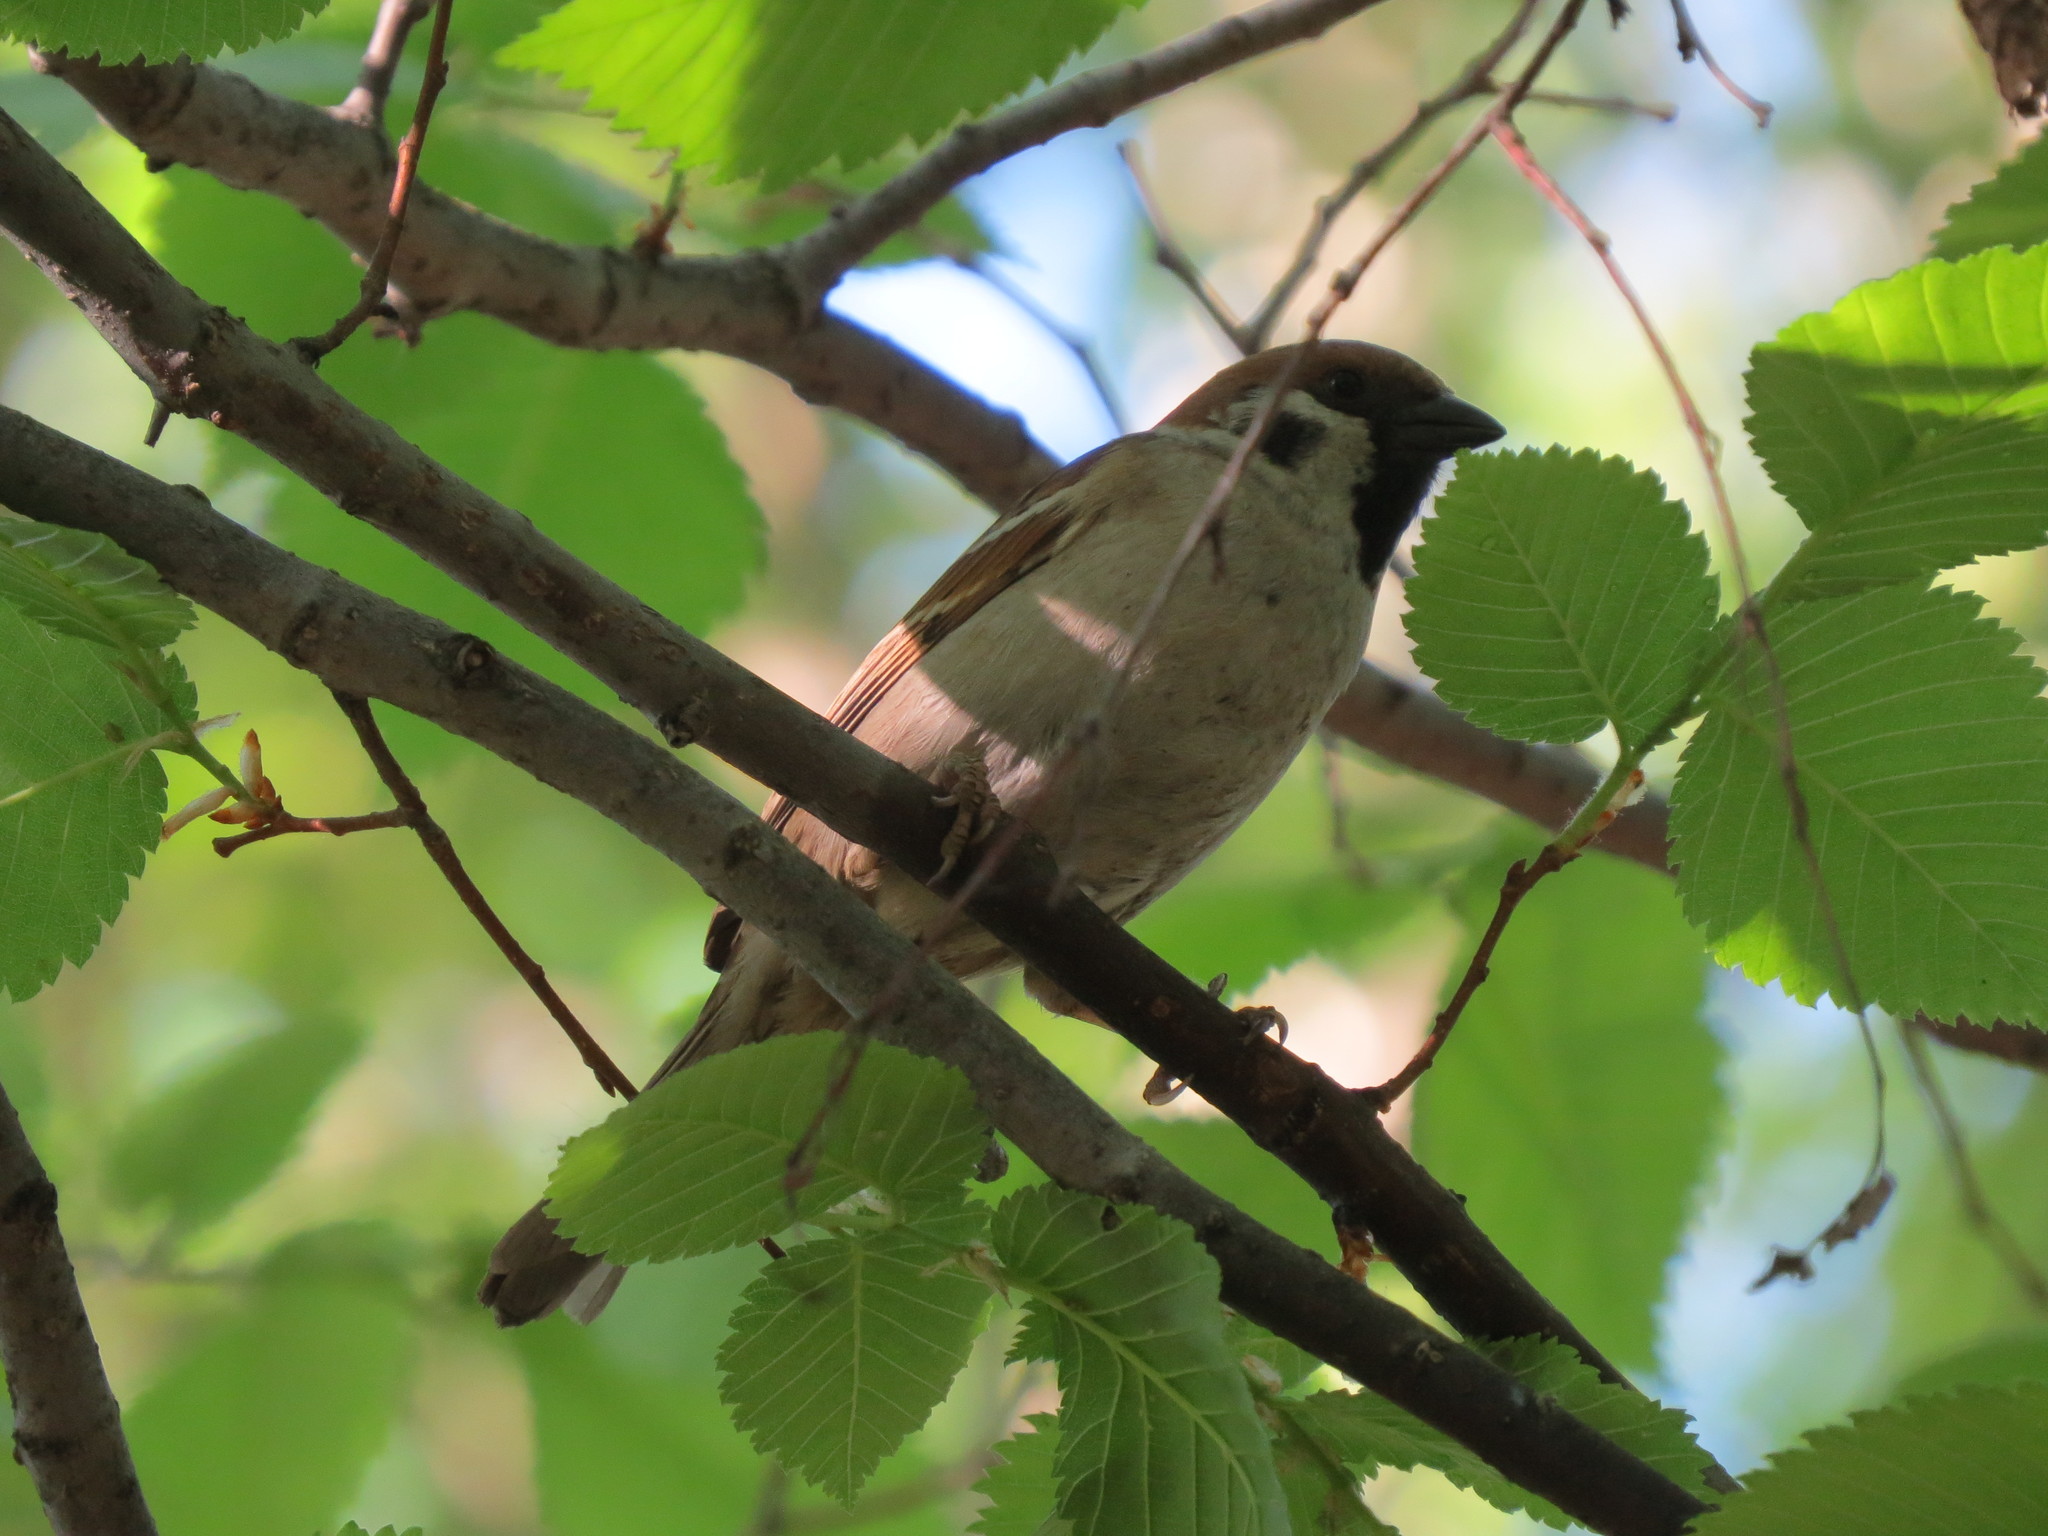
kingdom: Animalia
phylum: Chordata
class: Aves
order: Passeriformes
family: Passeridae
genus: Passer
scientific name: Passer montanus
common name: Eurasian tree sparrow
